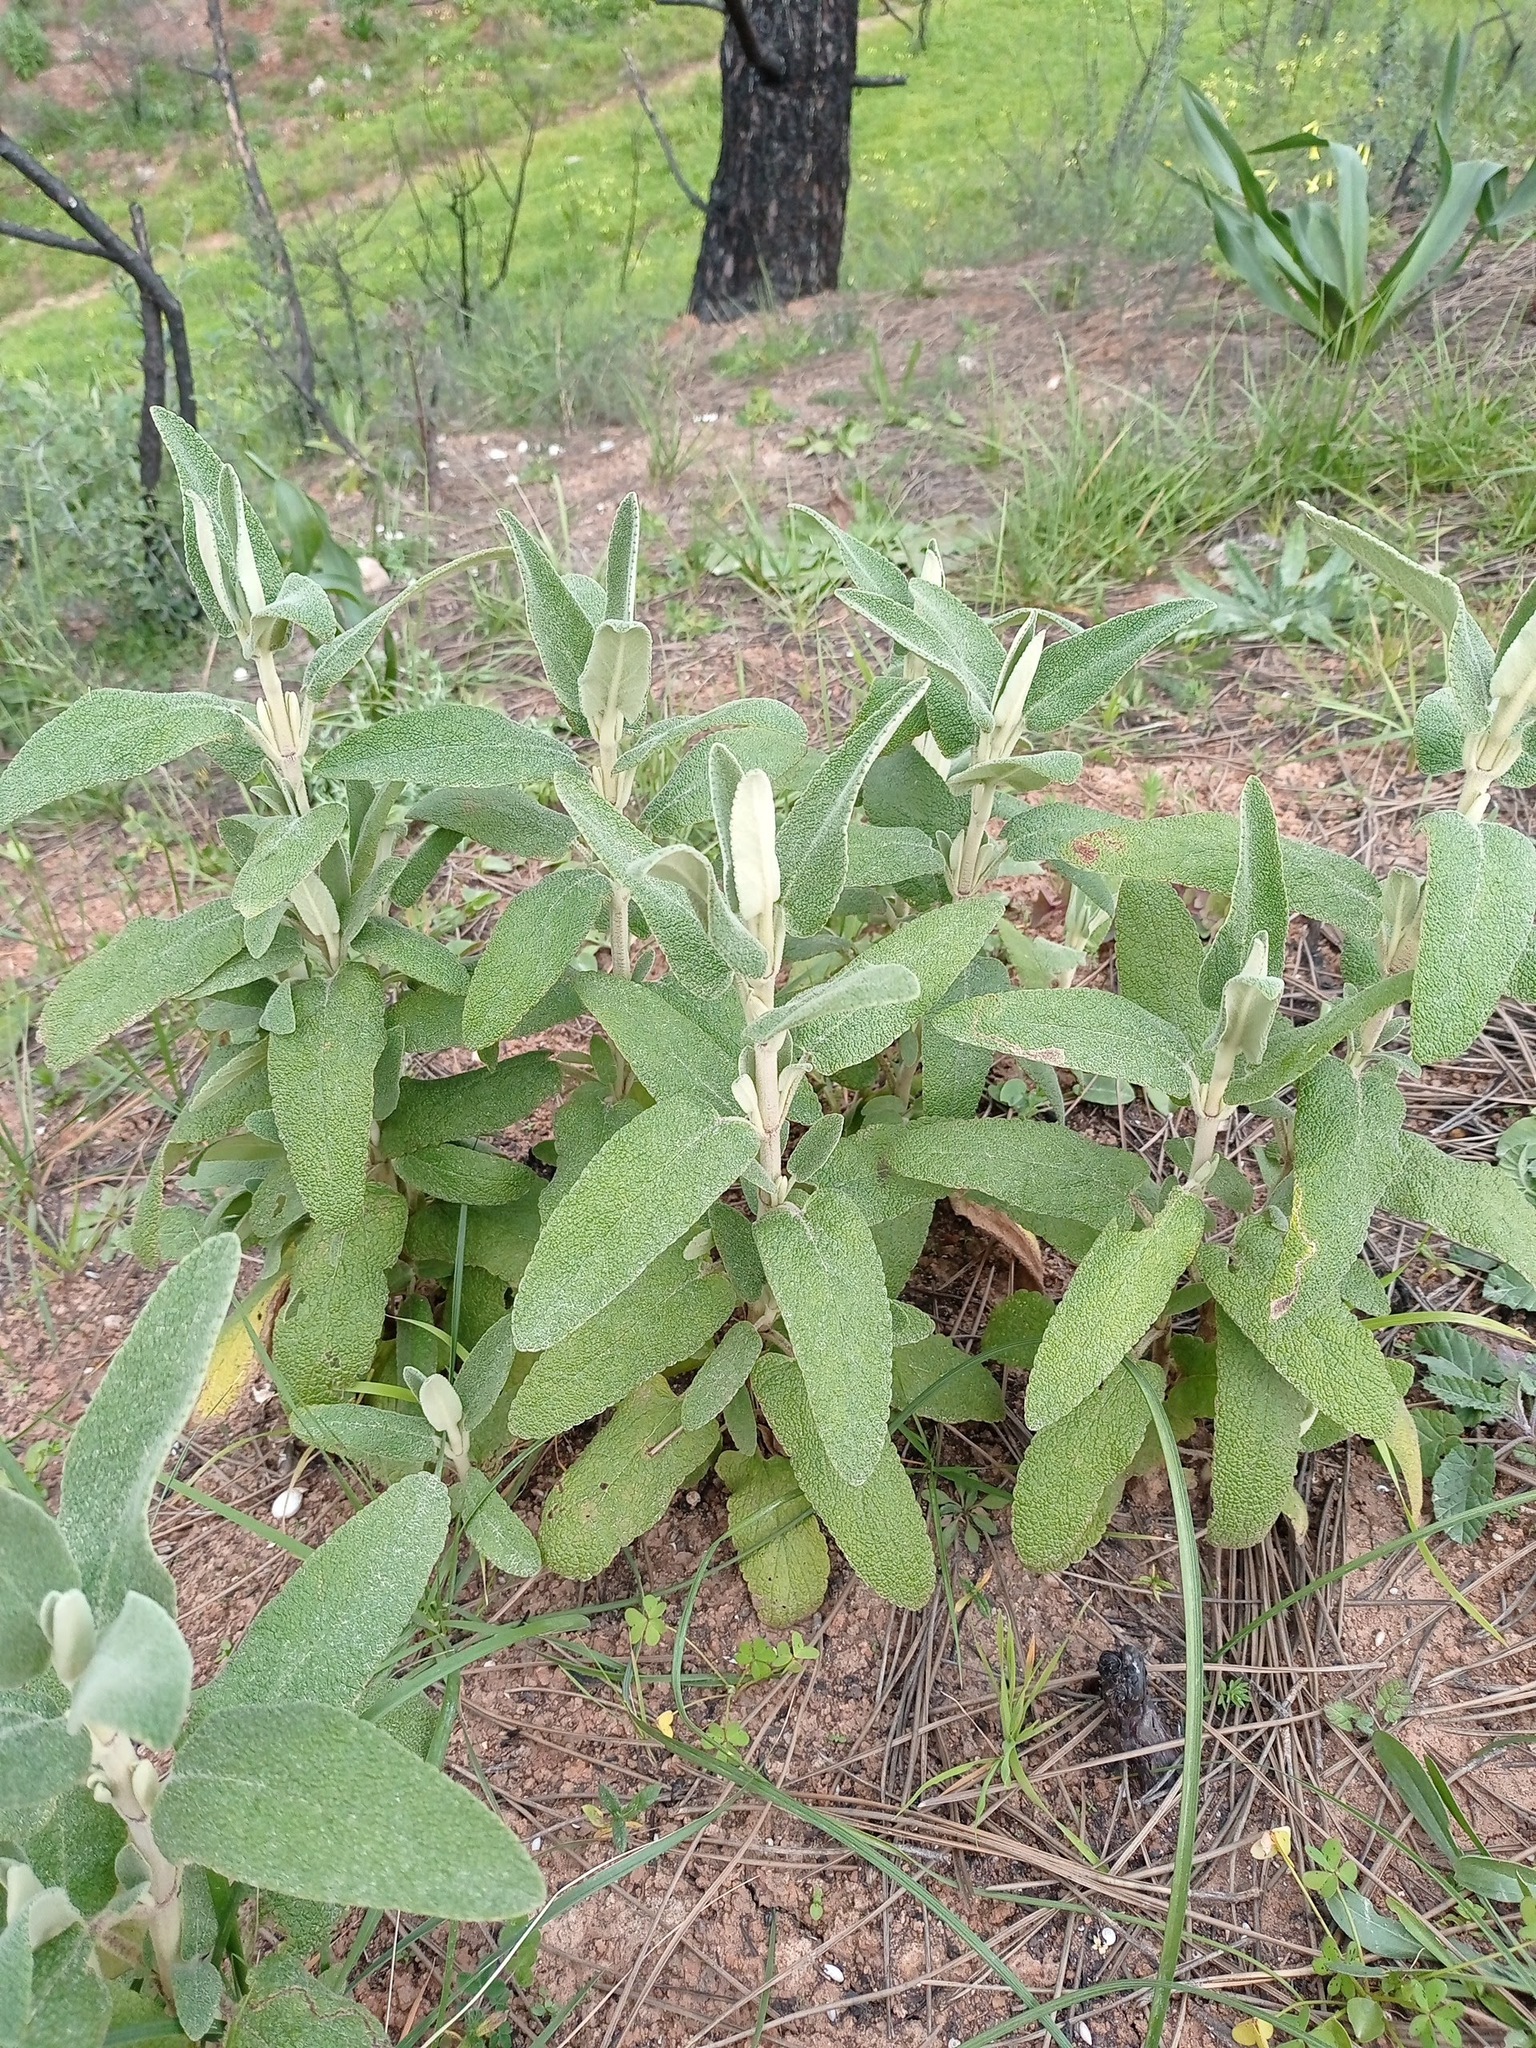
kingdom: Plantae
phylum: Tracheophyta
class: Magnoliopsida
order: Lamiales
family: Lamiaceae
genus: Phlomis
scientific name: Phlomis purpurea
